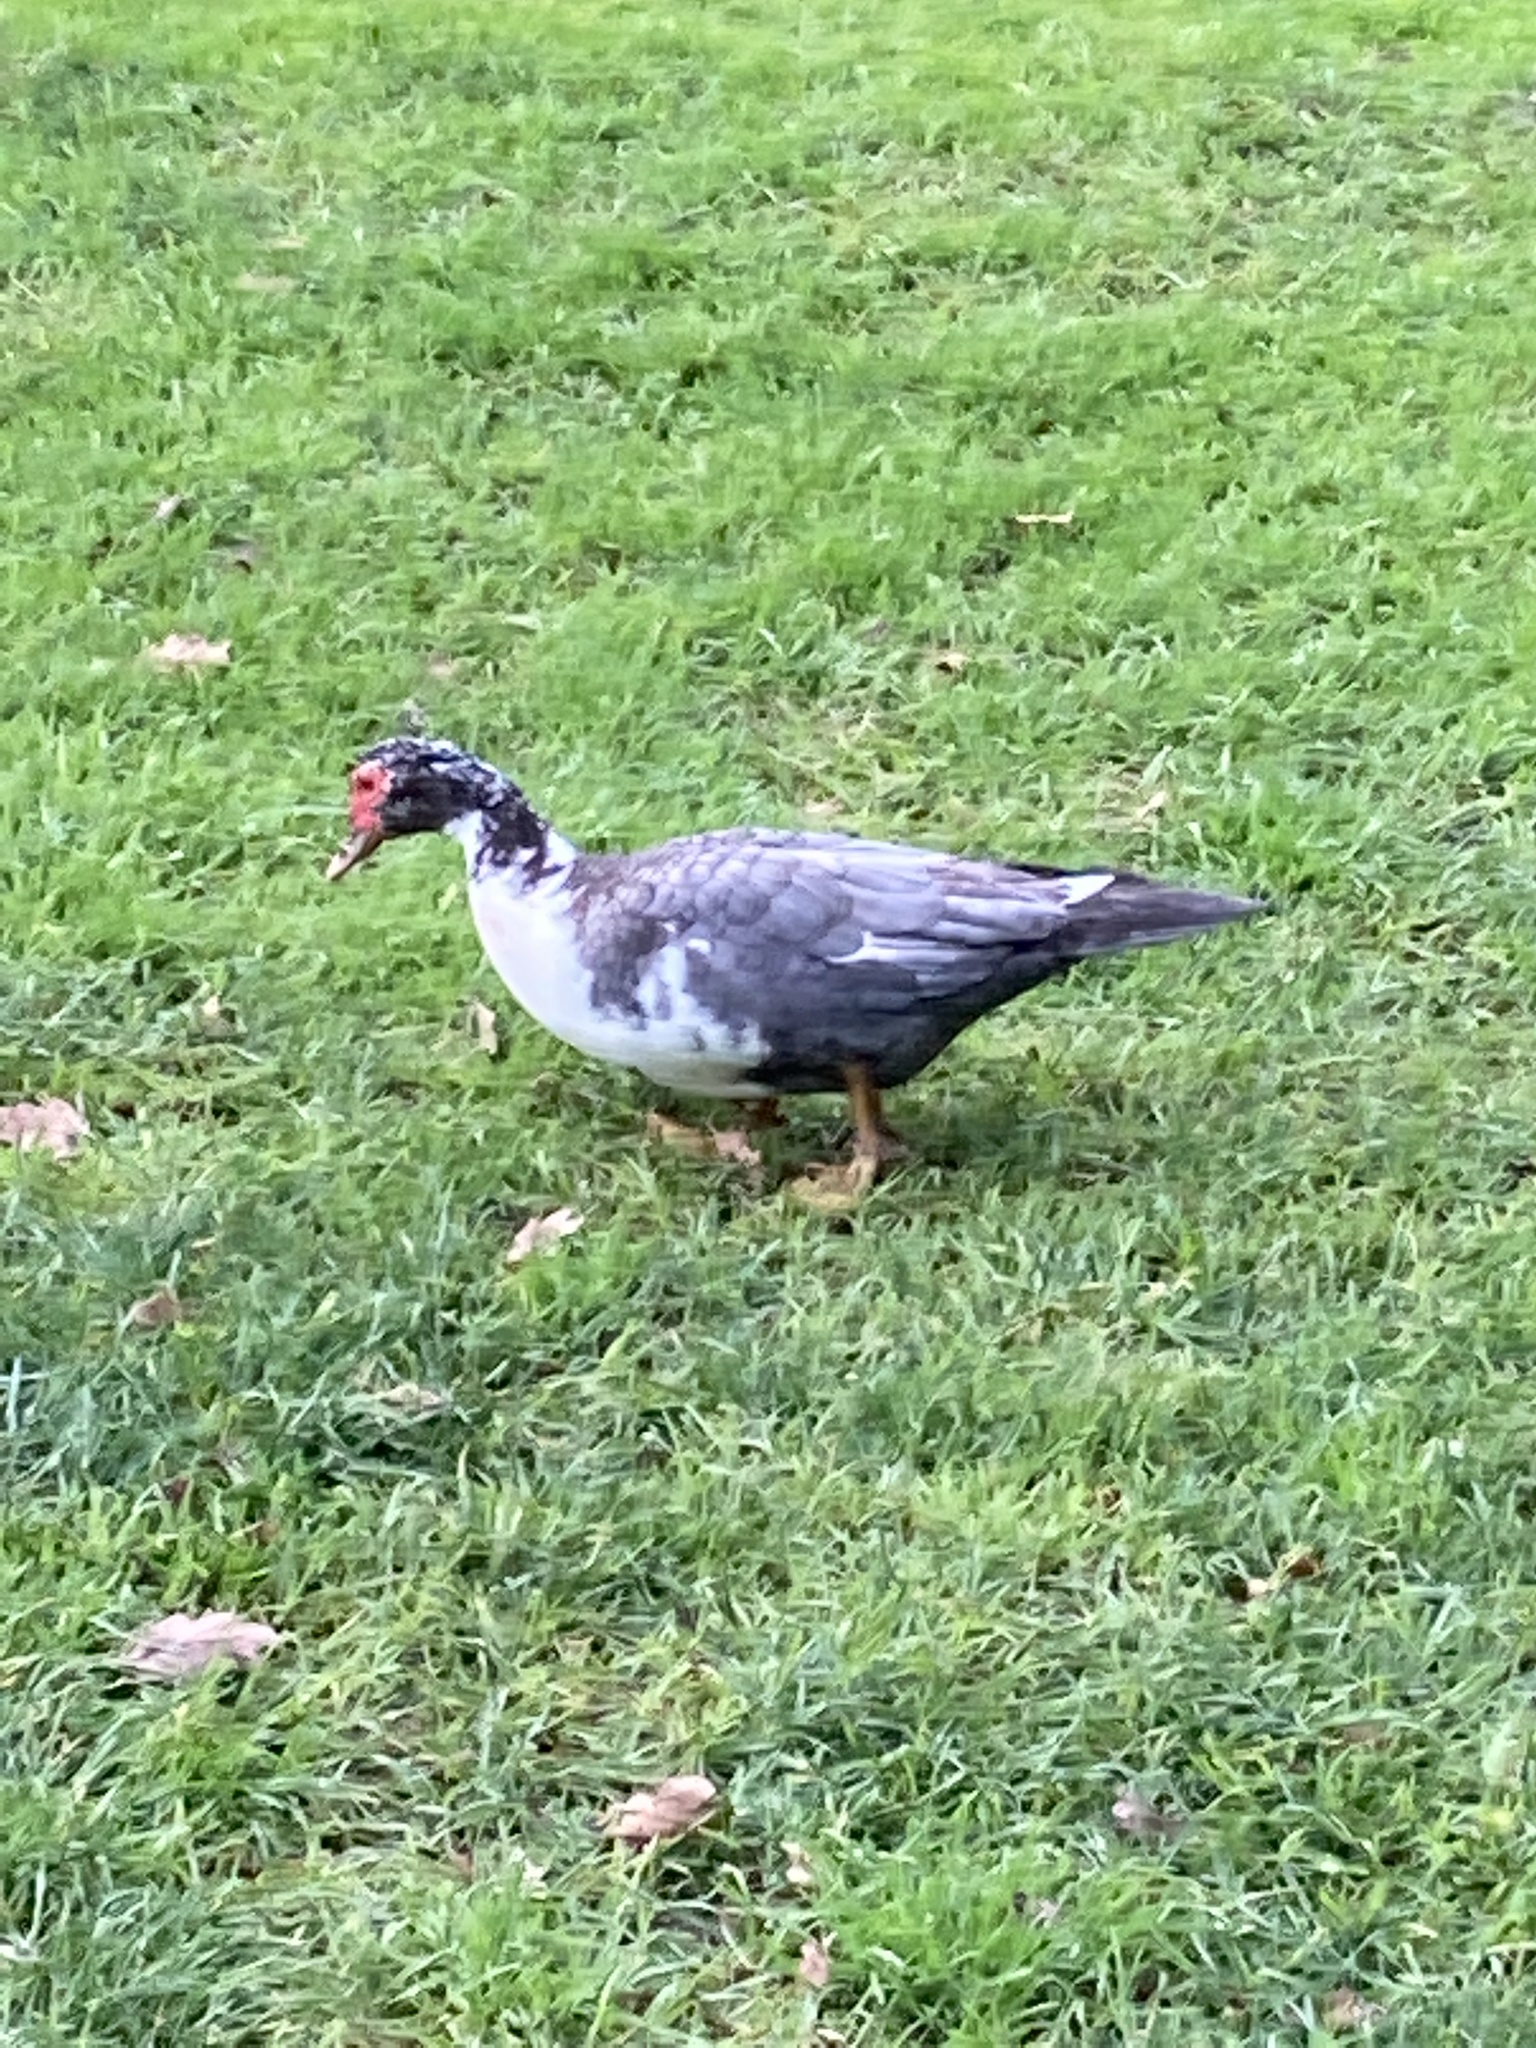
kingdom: Animalia
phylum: Chordata
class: Aves
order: Anseriformes
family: Anatidae
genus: Cairina
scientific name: Cairina moschata
